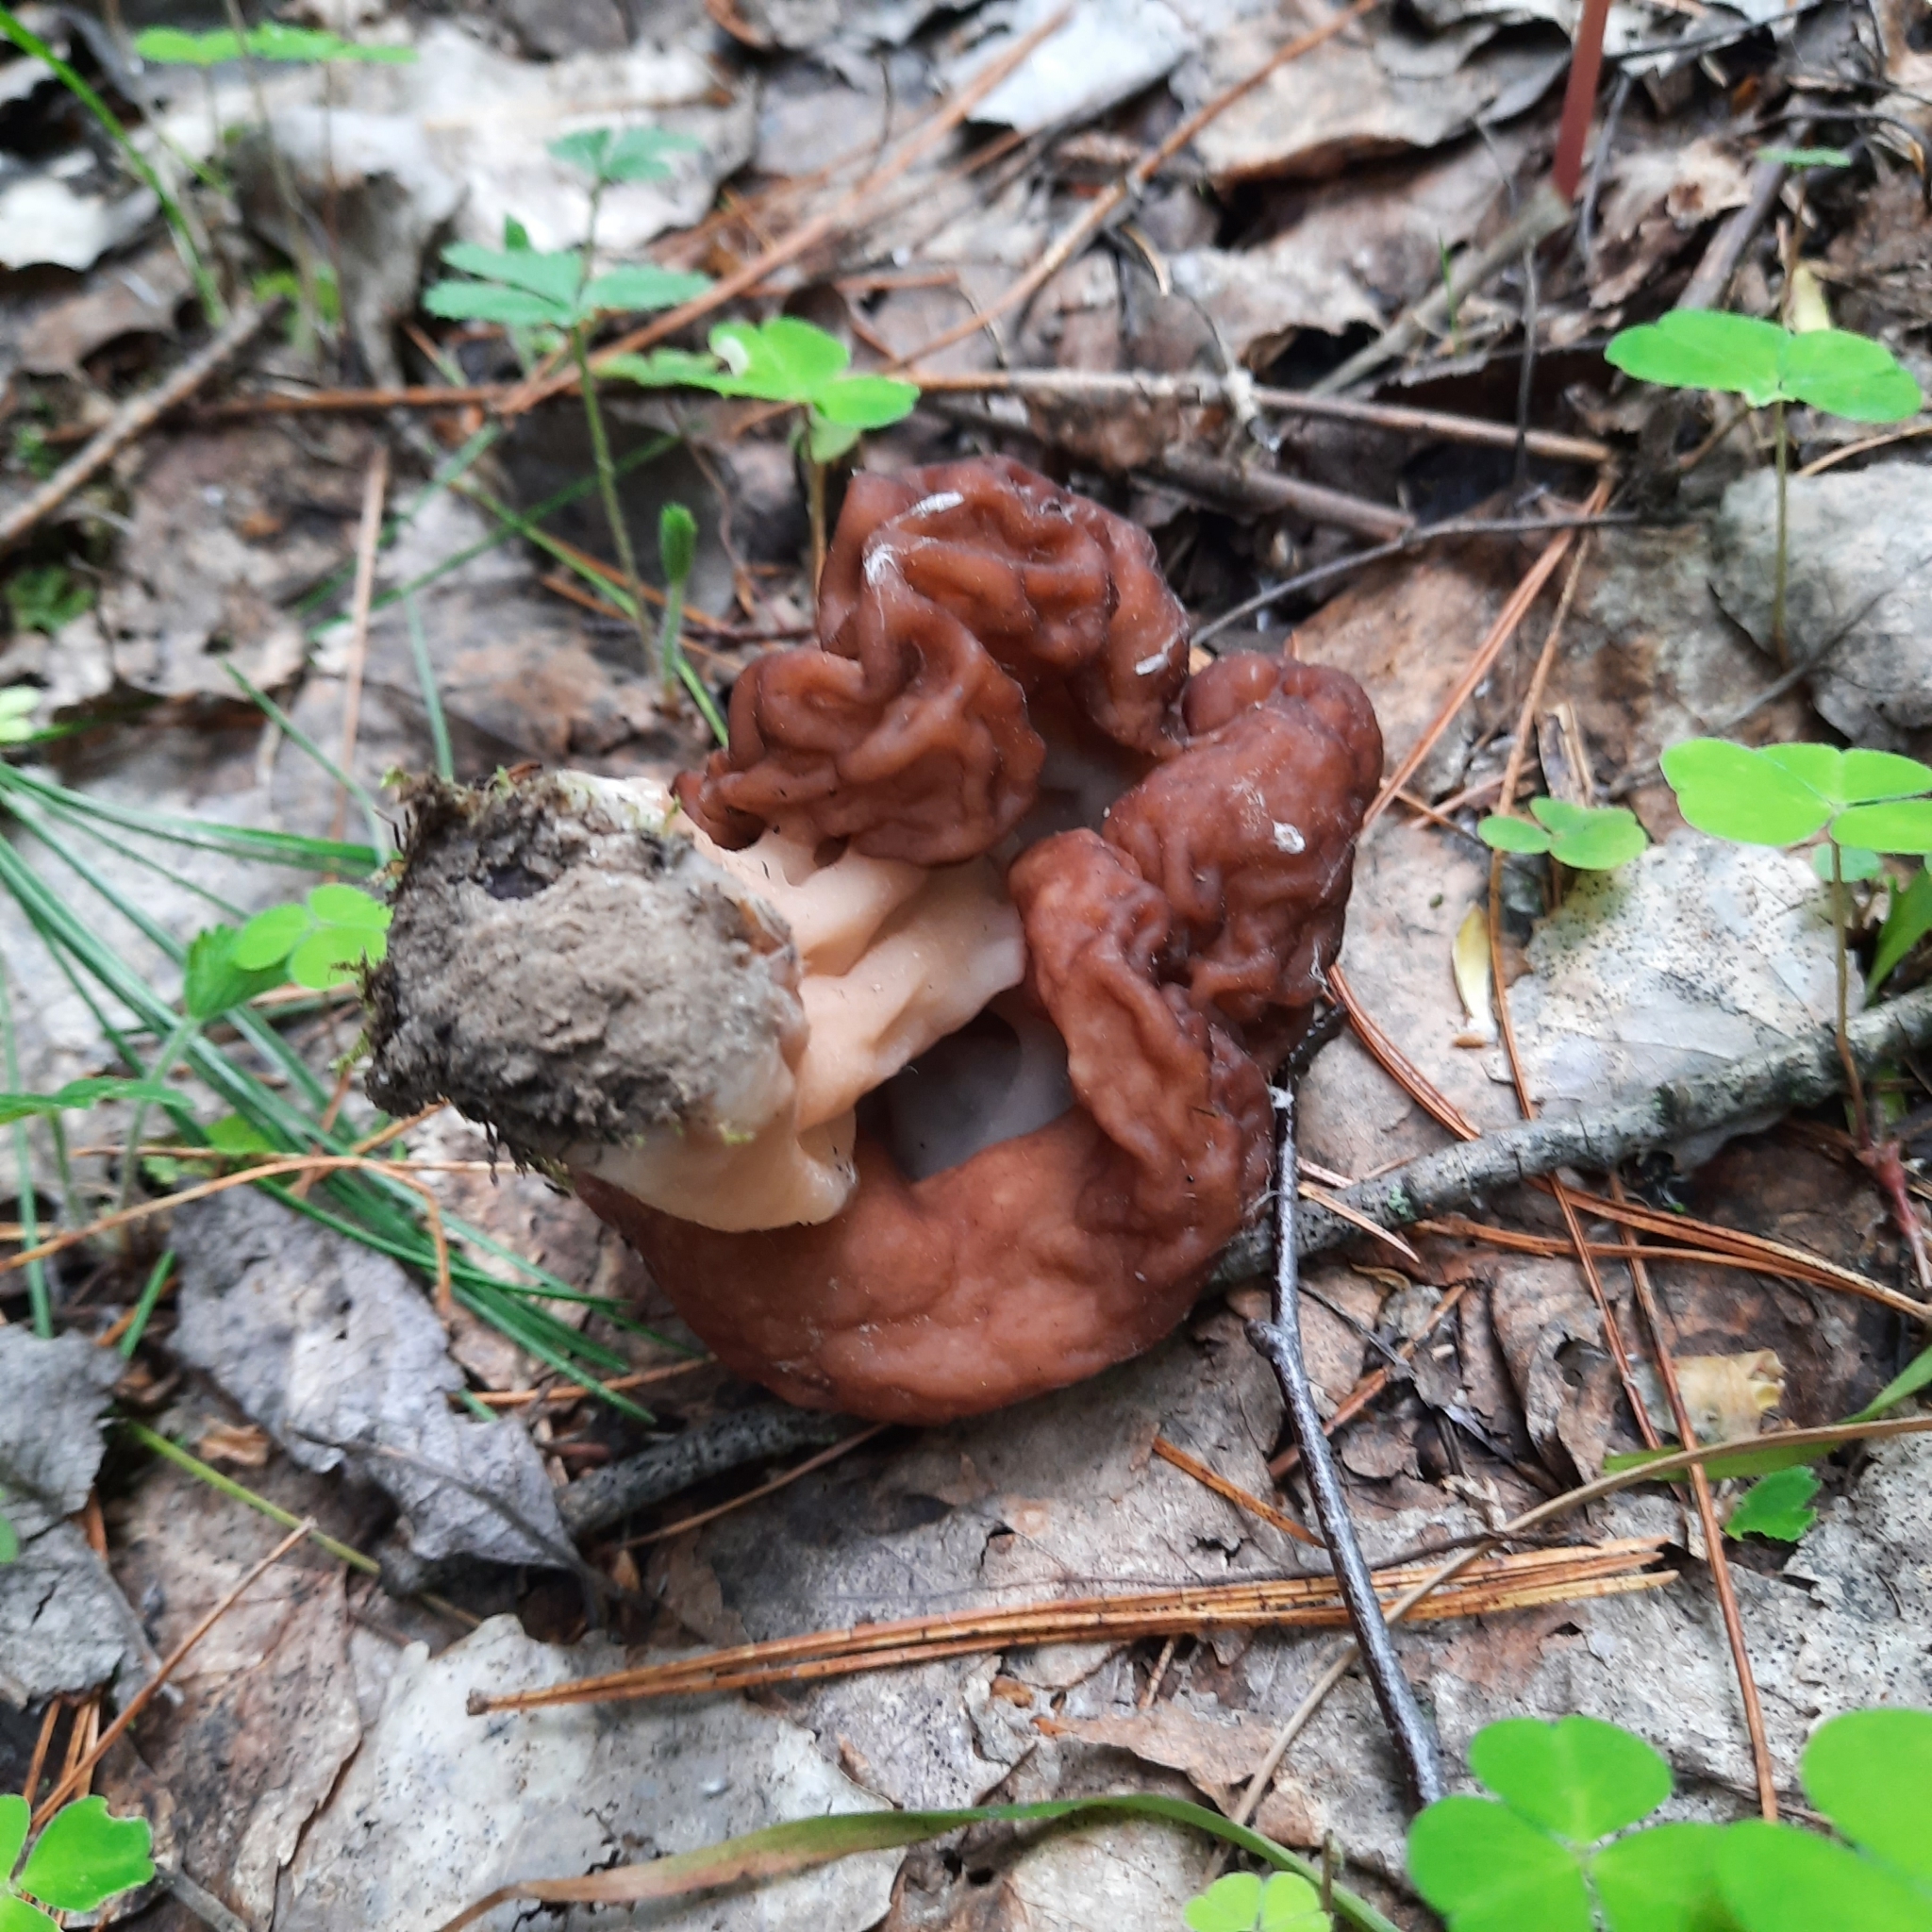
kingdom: Fungi
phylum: Ascomycota
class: Pezizomycetes
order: Pezizales
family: Discinaceae
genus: Gyromitra
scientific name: Gyromitra esculenta
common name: False morel
